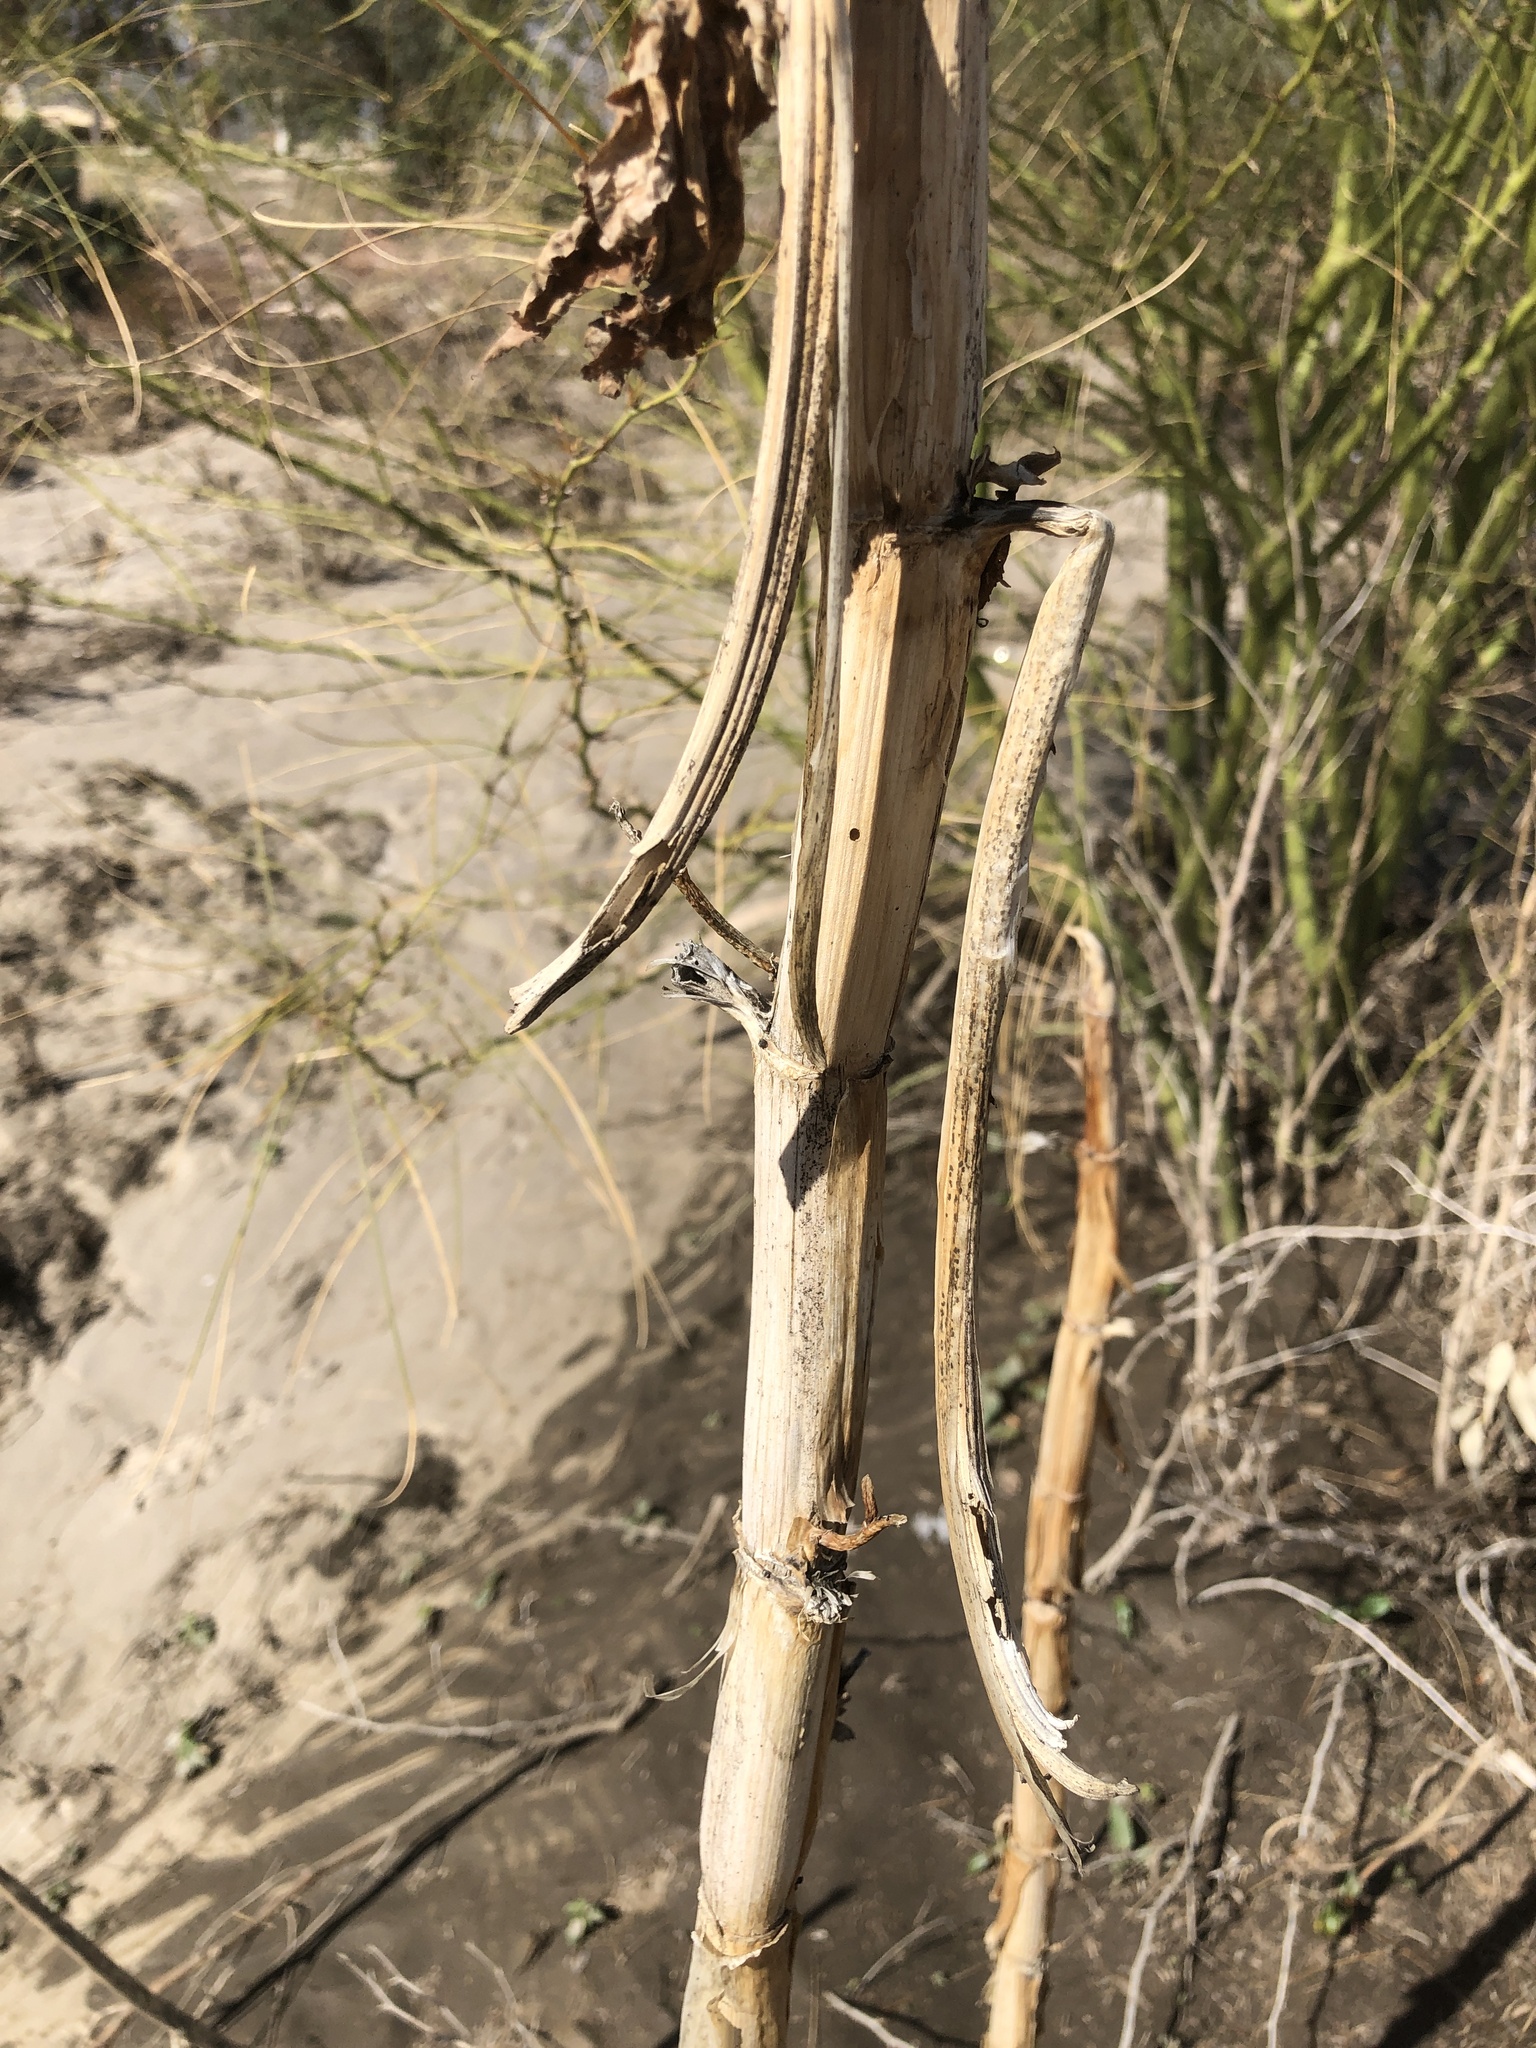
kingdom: Plantae
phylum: Tracheophyta
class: Magnoliopsida
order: Malpighiales
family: Euphorbiaceae
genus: Ricinus
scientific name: Ricinus communis
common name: Castor-oil-plant
